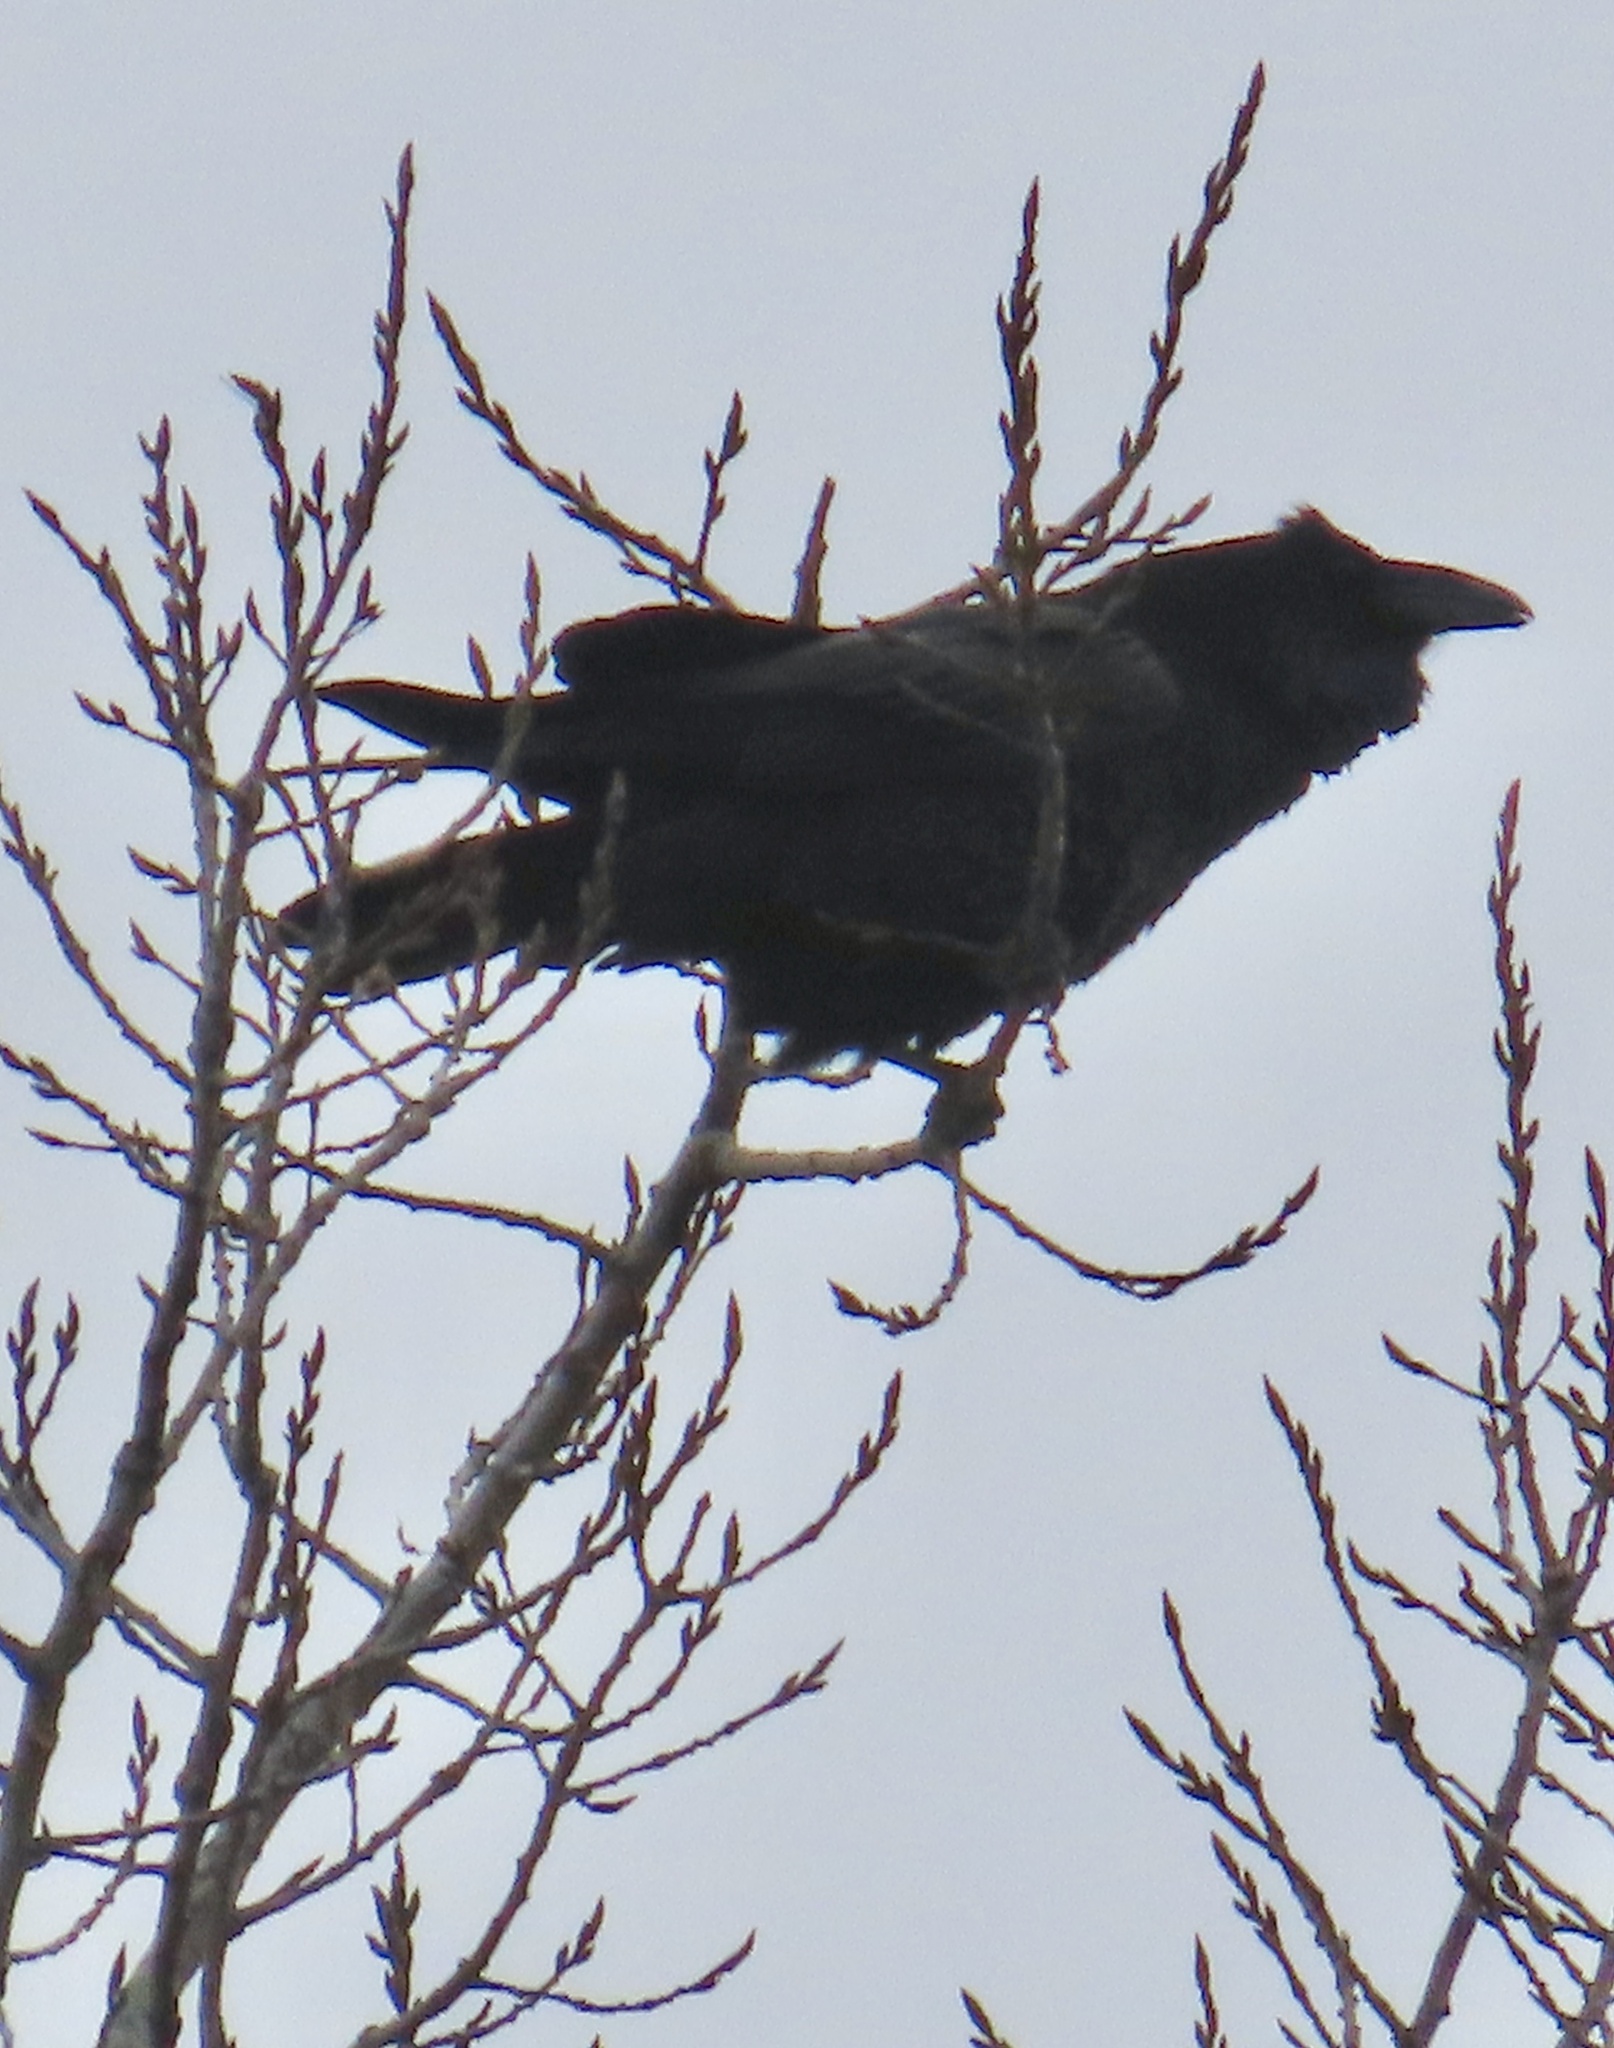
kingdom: Animalia
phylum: Chordata
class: Aves
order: Passeriformes
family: Corvidae
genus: Corvus
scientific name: Corvus corax
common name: Common raven
